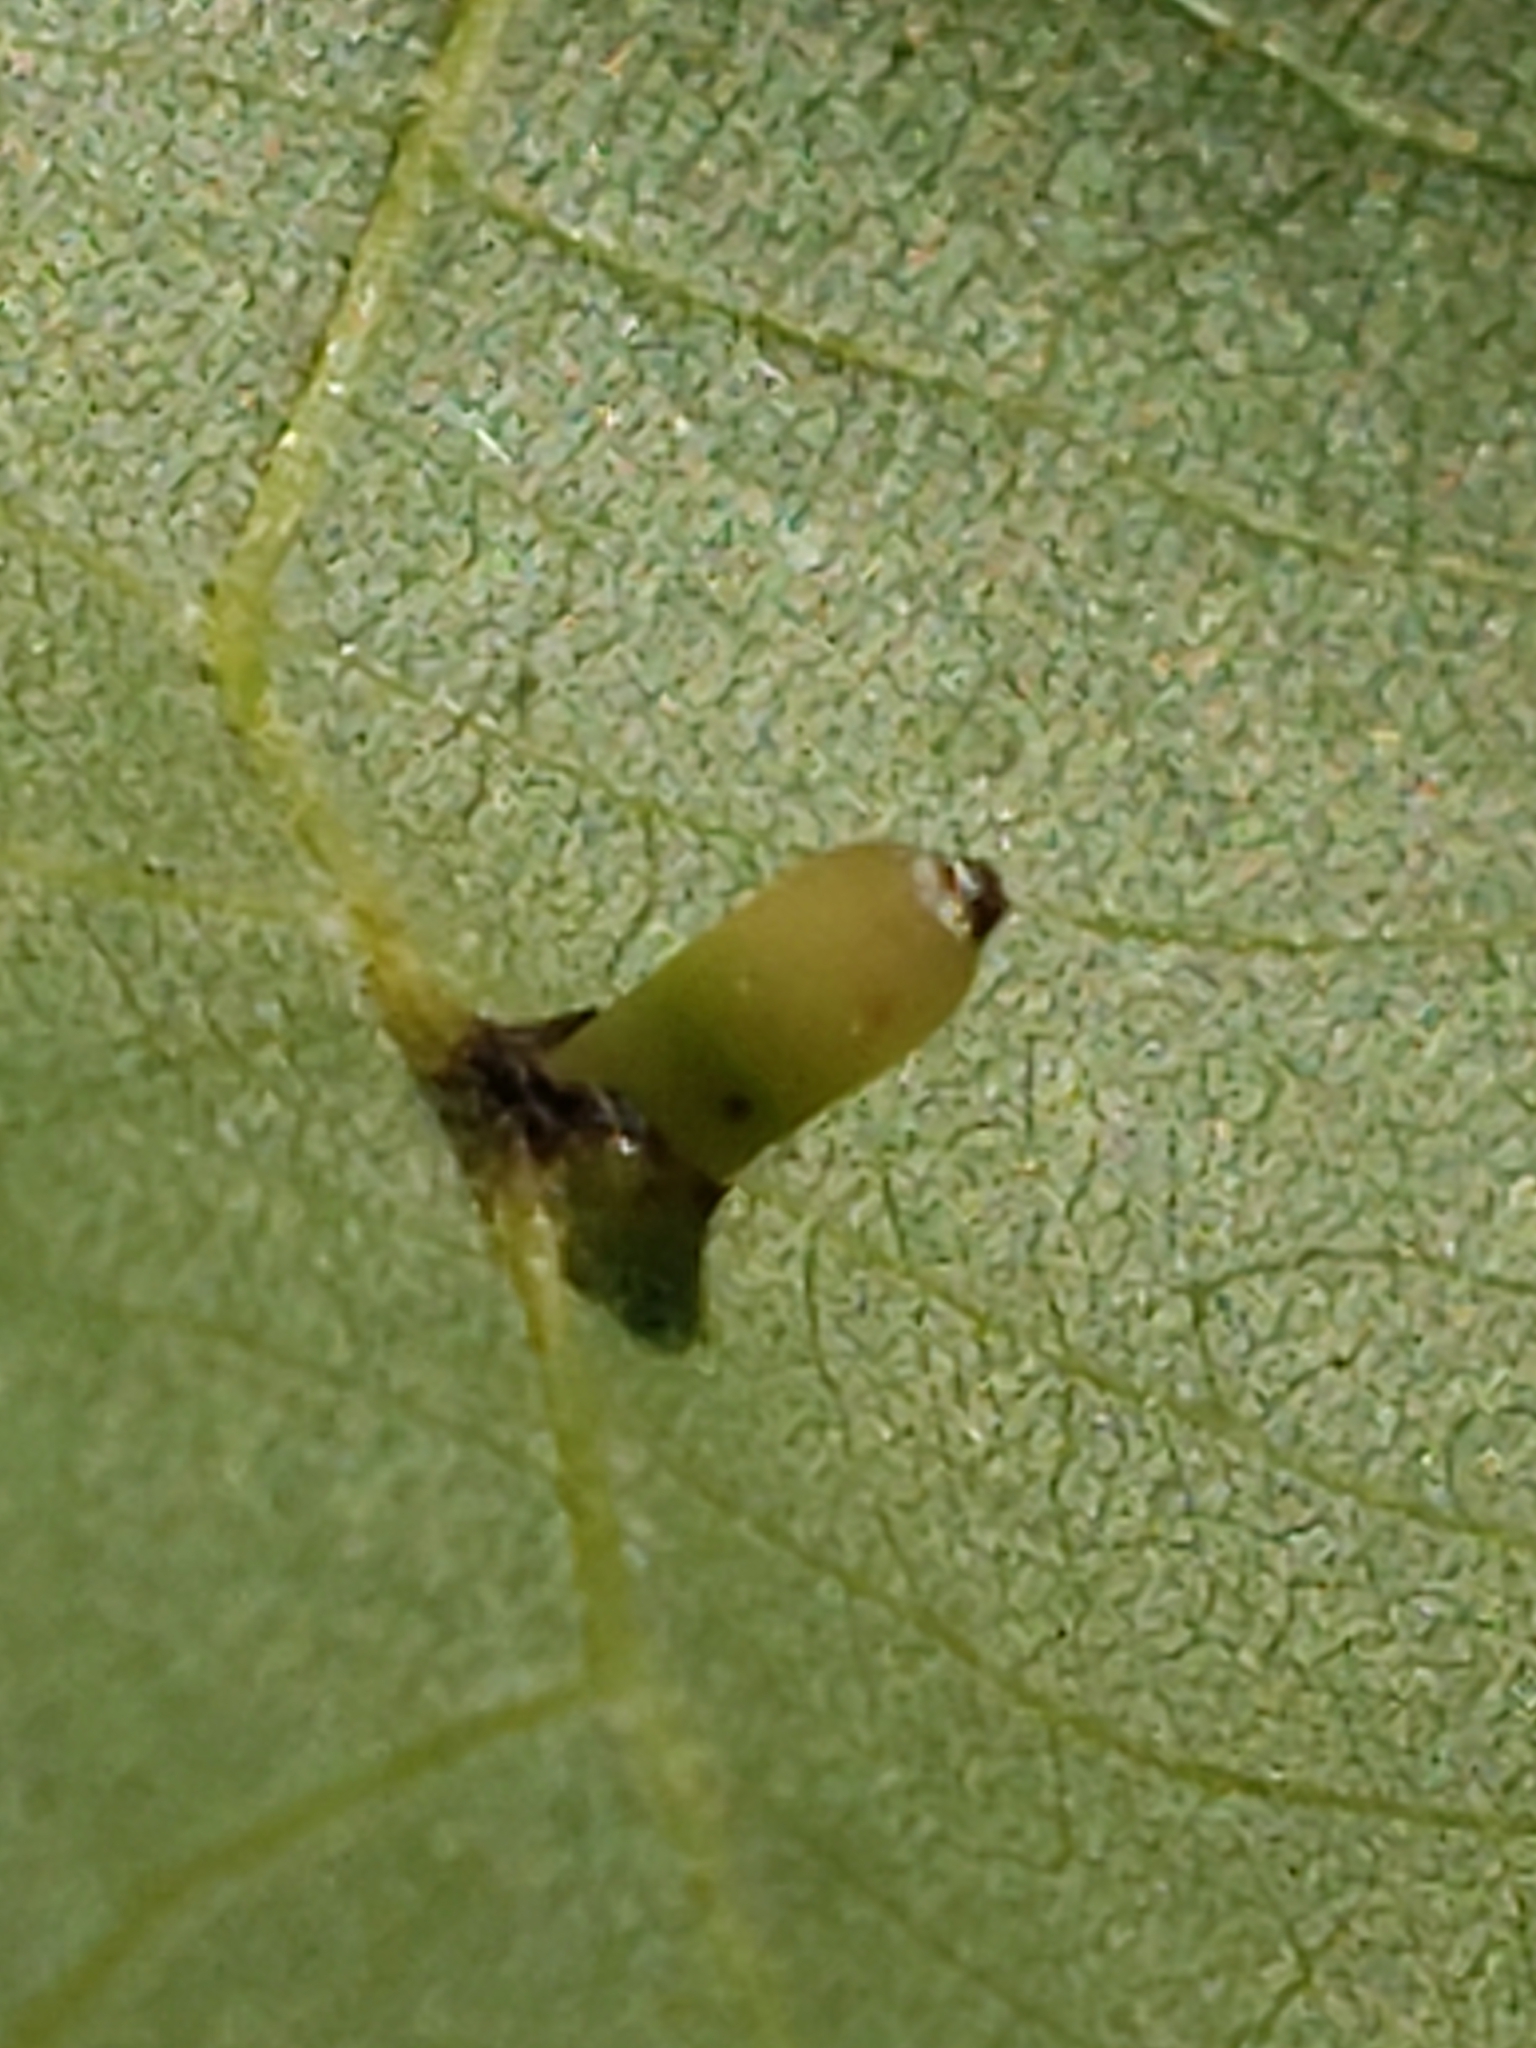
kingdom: Animalia
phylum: Arthropoda
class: Insecta
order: Diptera
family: Cecidomyiidae
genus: Caryomyia
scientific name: Caryomyia tubicola
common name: Hickory bullet gall midge
